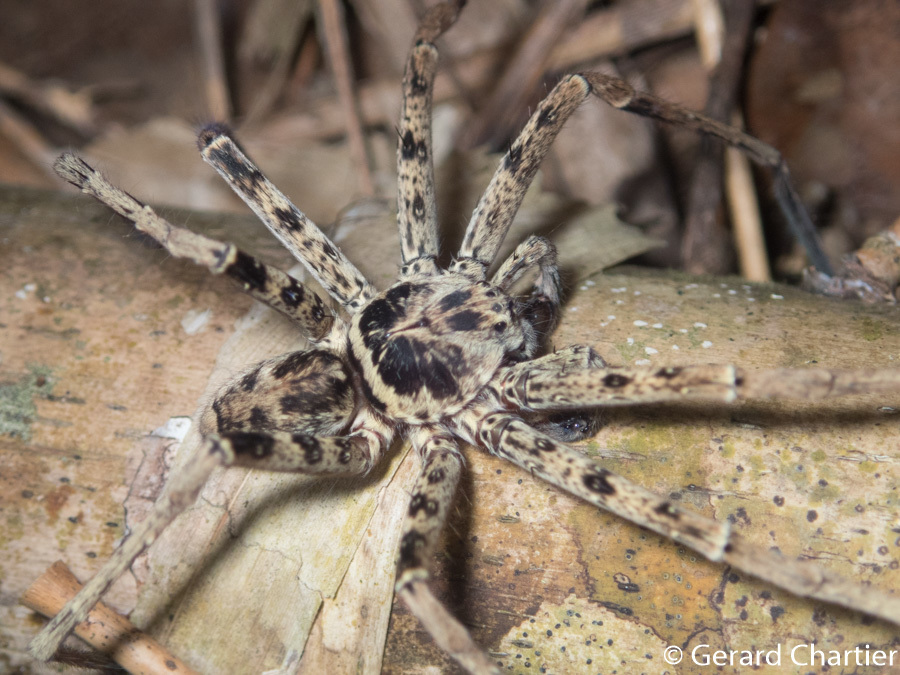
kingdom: Animalia
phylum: Arthropoda
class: Arachnida
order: Araneae
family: Sparassidae
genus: Heteropoda
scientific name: Heteropoda venatoria
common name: Huntsman spider
